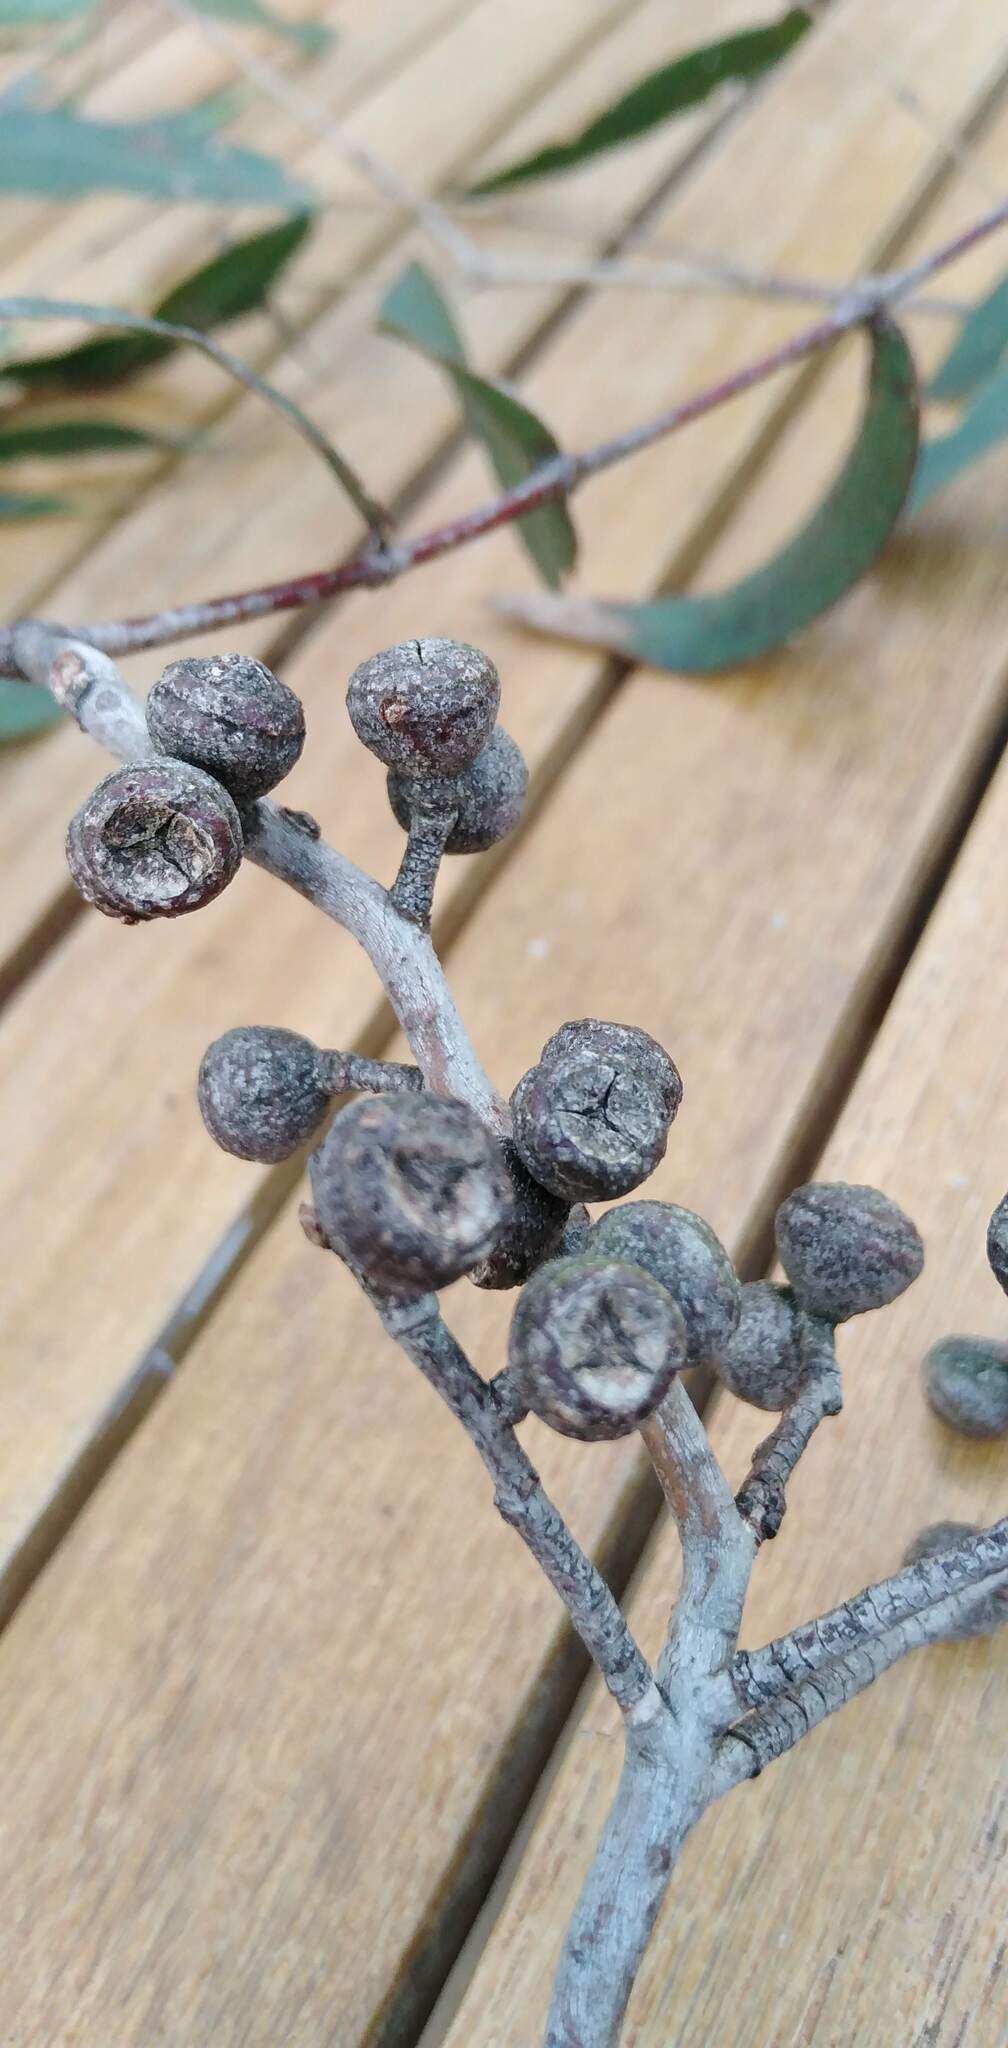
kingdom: Plantae
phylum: Tracheophyta
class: Magnoliopsida
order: Myrtales
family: Myrtaceae
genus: Eucalyptus
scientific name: Eucalyptus viminalis
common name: Manna gum
